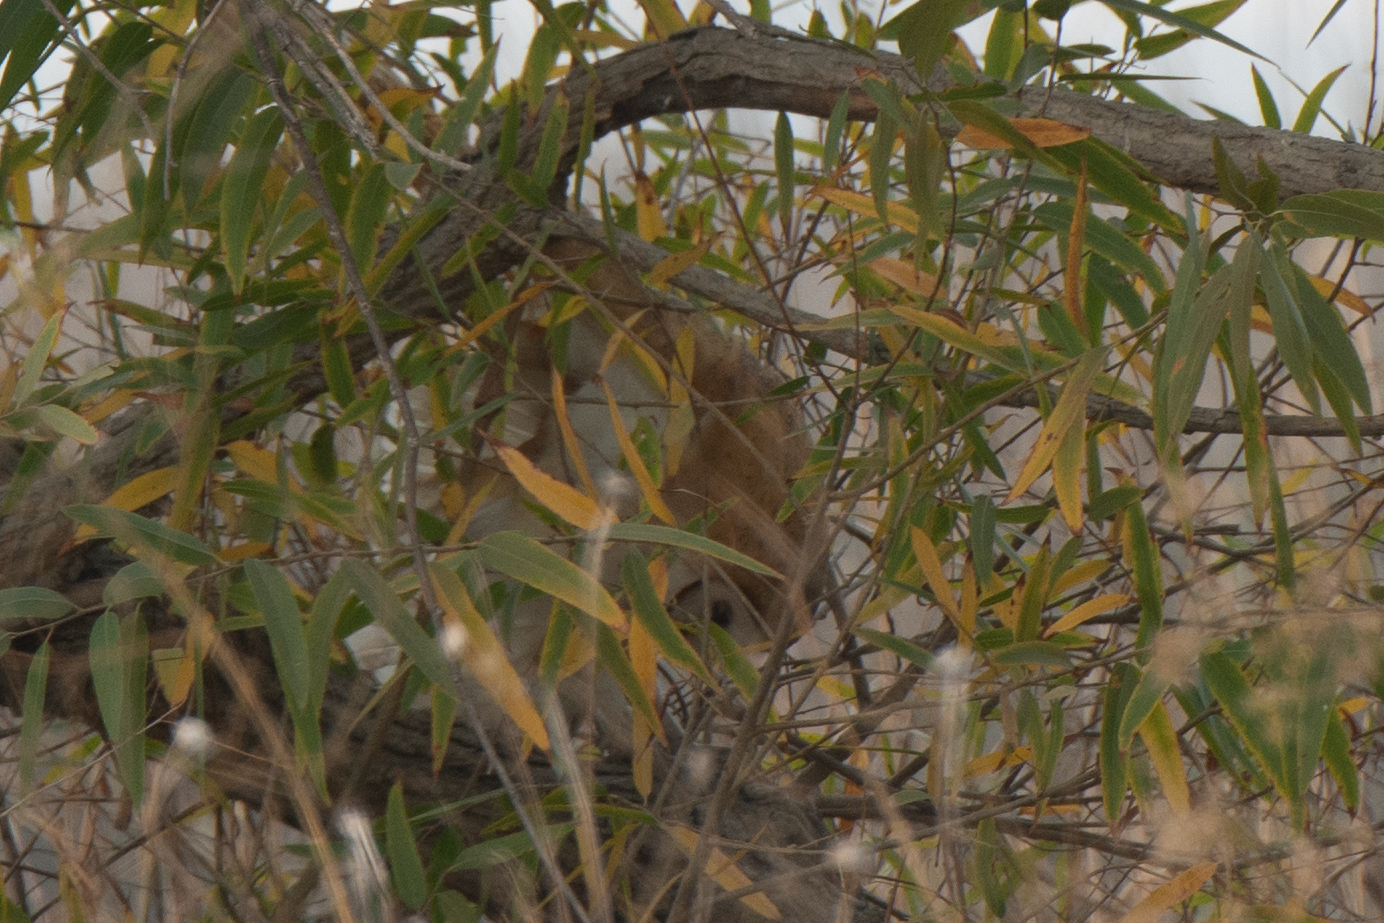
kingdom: Animalia
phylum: Chordata
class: Aves
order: Strigiformes
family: Tytonidae
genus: Tyto
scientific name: Tyto alba
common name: Barn owl
